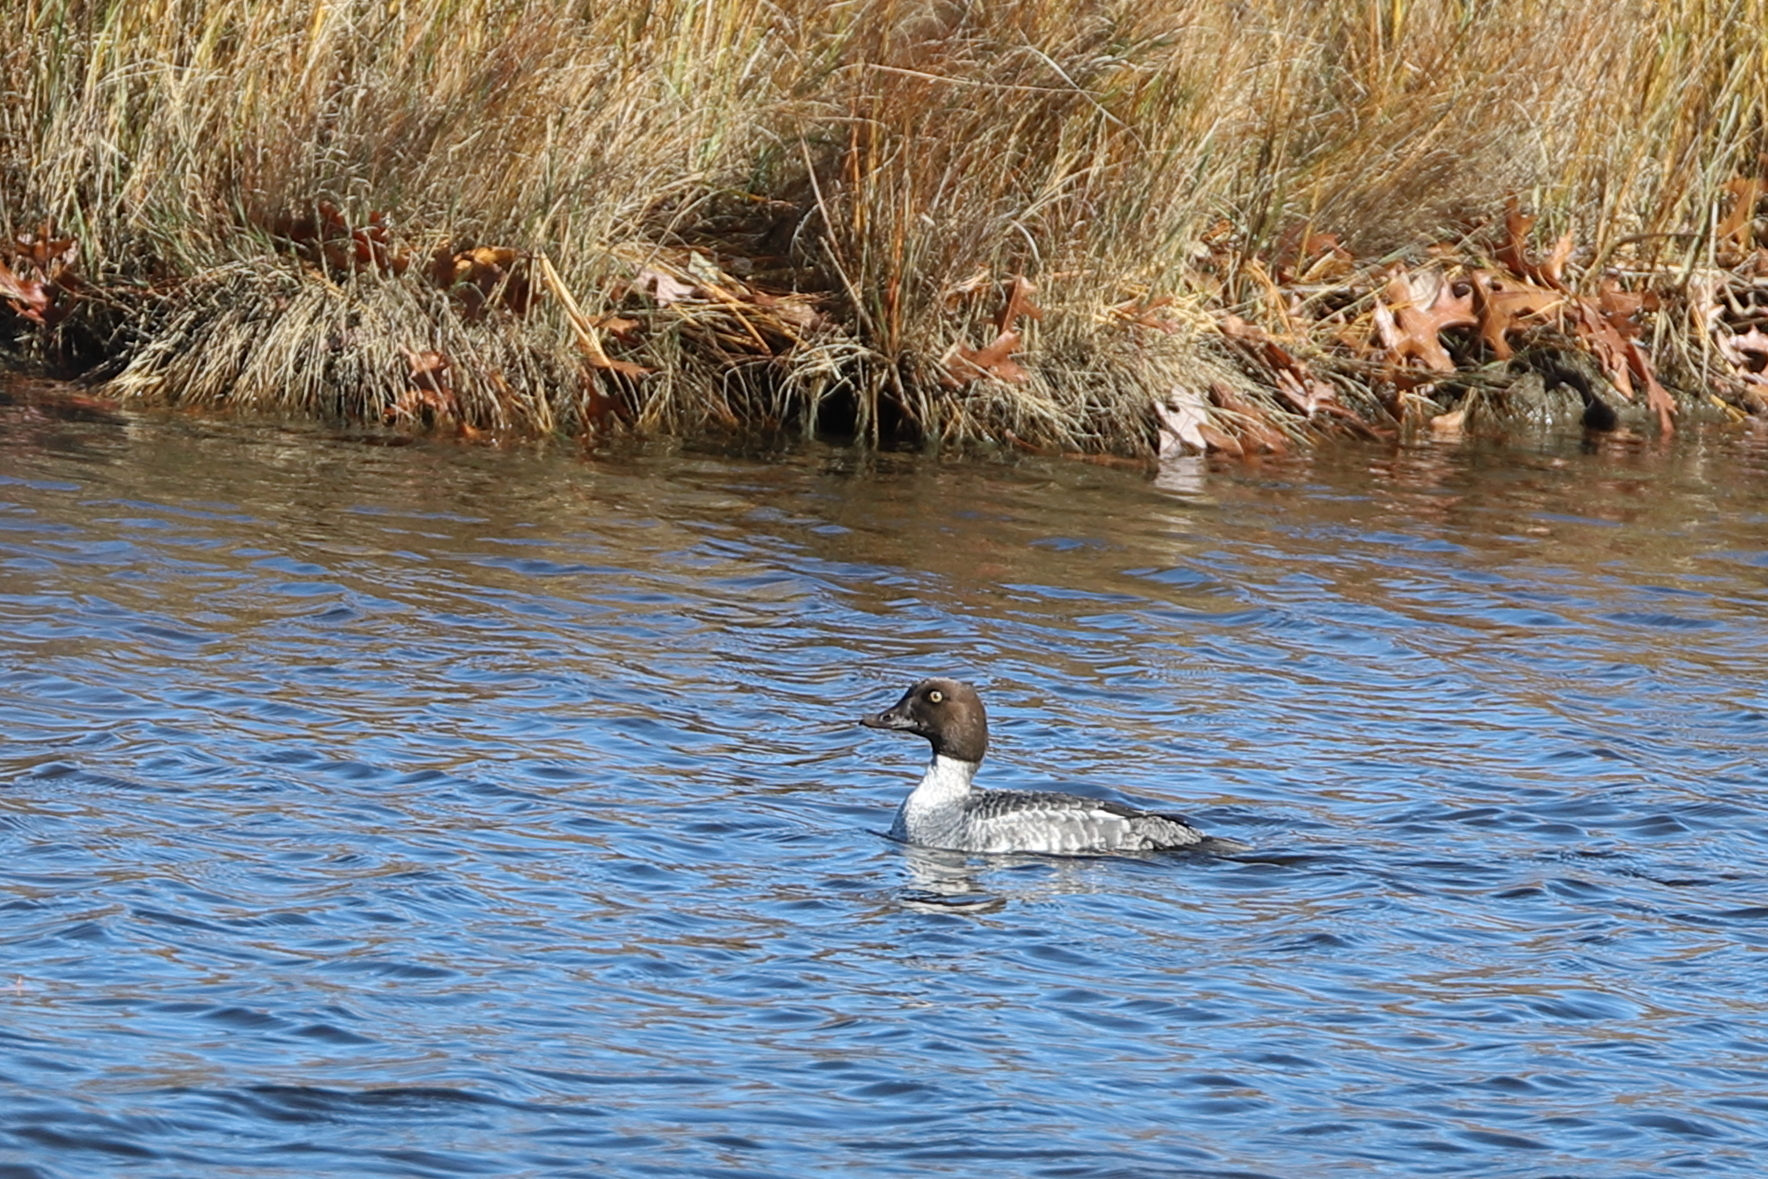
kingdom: Animalia
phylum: Chordata
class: Aves
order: Anseriformes
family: Anatidae
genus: Bucephala
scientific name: Bucephala clangula
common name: Common goldeneye
